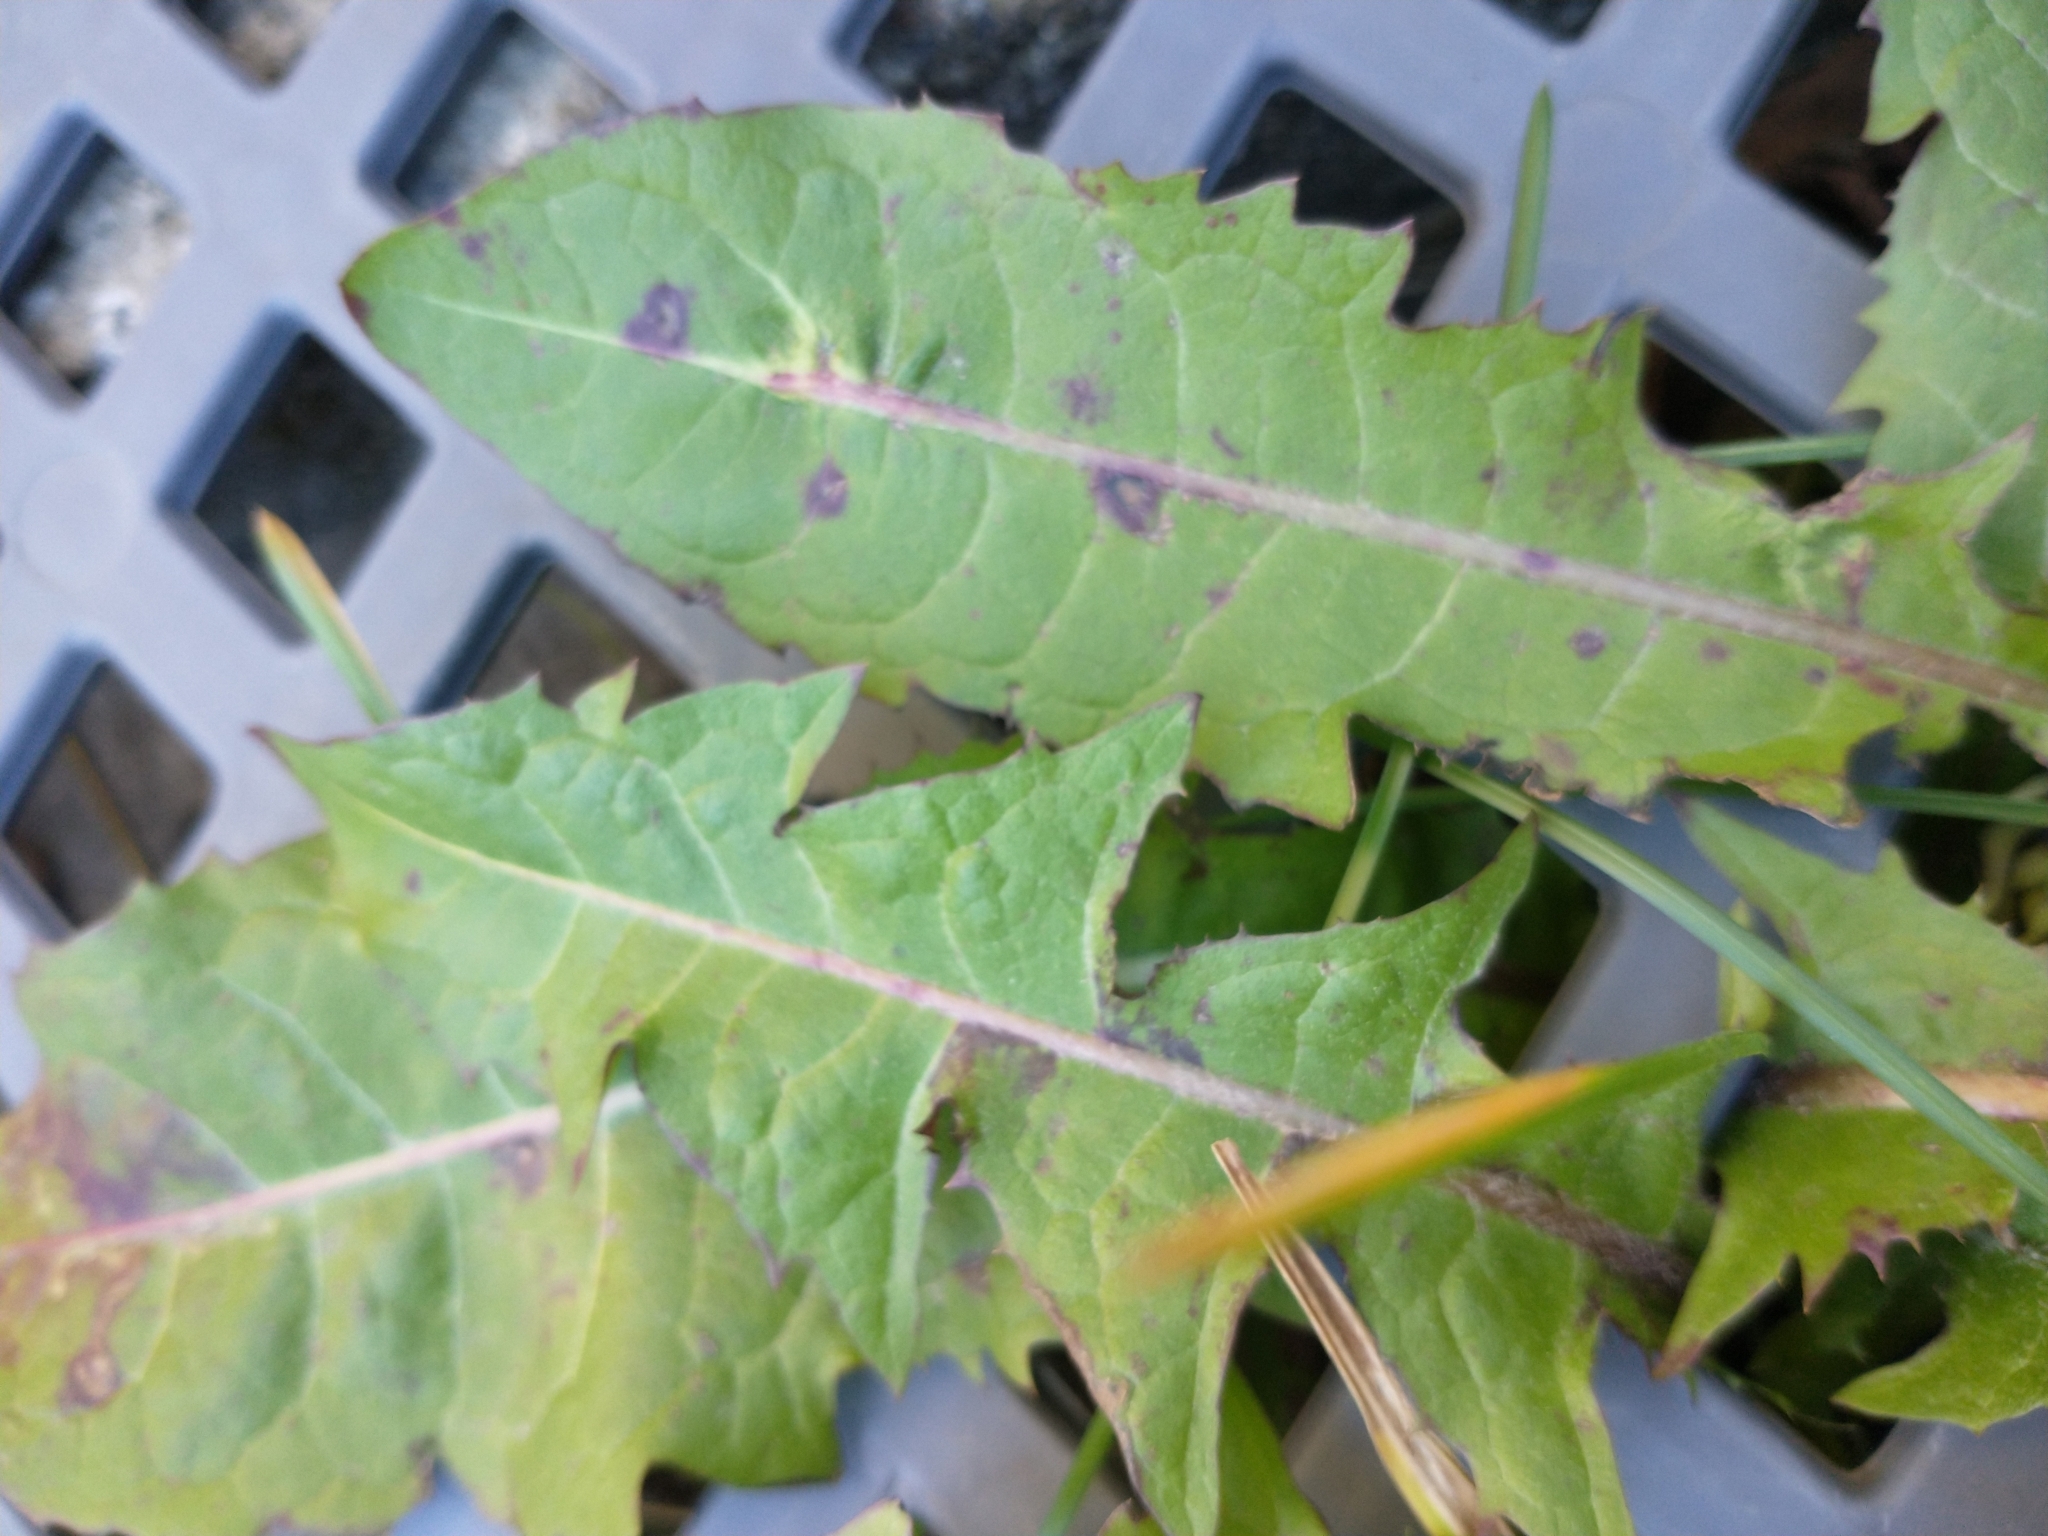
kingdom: Plantae
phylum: Tracheophyta
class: Magnoliopsida
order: Asterales
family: Asteraceae
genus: Taraxacum
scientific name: Taraxacum officinale
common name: Common dandelion
